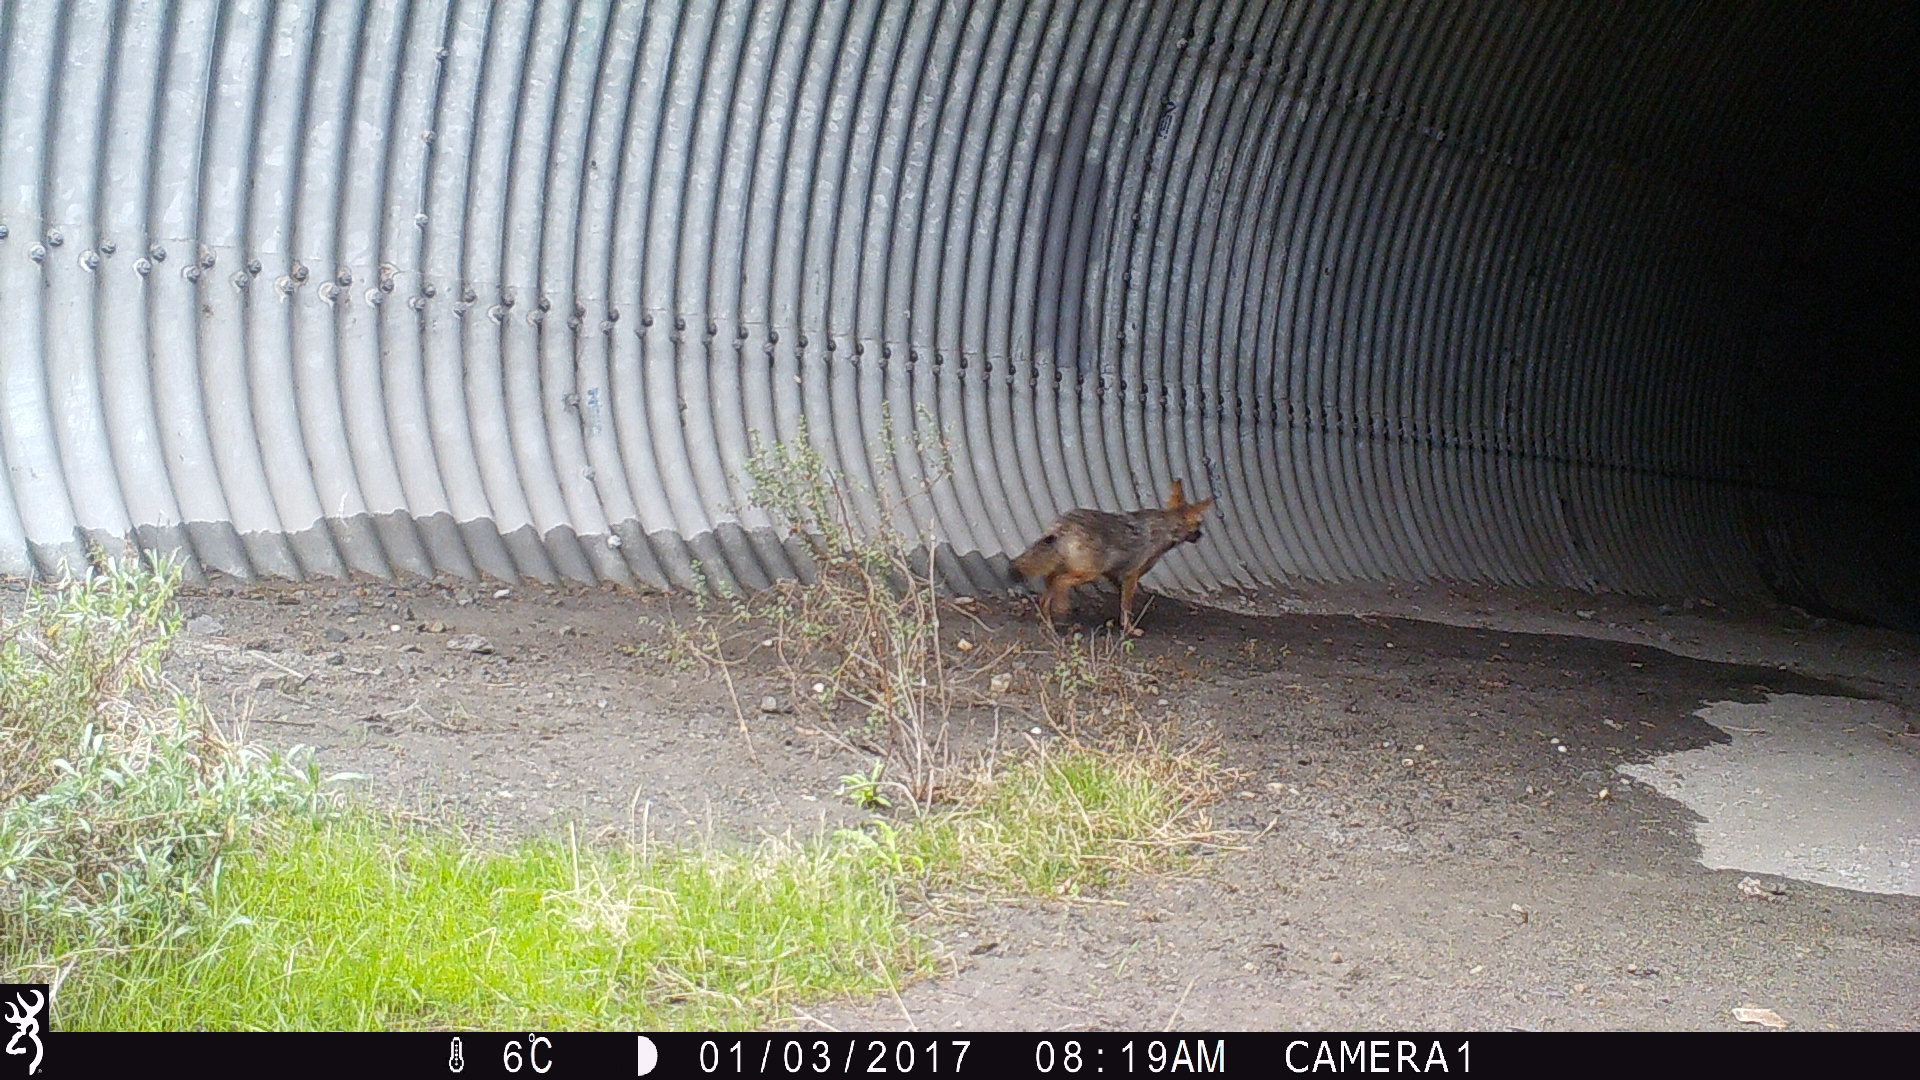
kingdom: Animalia
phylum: Chordata
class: Mammalia
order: Carnivora
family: Canidae
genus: Canis
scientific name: Canis latrans
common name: Coyote
